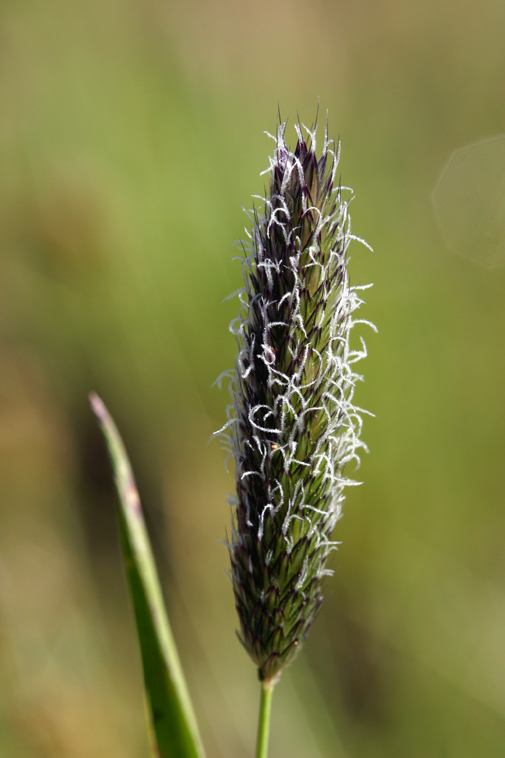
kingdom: Plantae
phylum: Tracheophyta
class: Liliopsida
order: Poales
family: Poaceae
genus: Alopecurus
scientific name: Alopecurus pratensis
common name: Meadow foxtail
